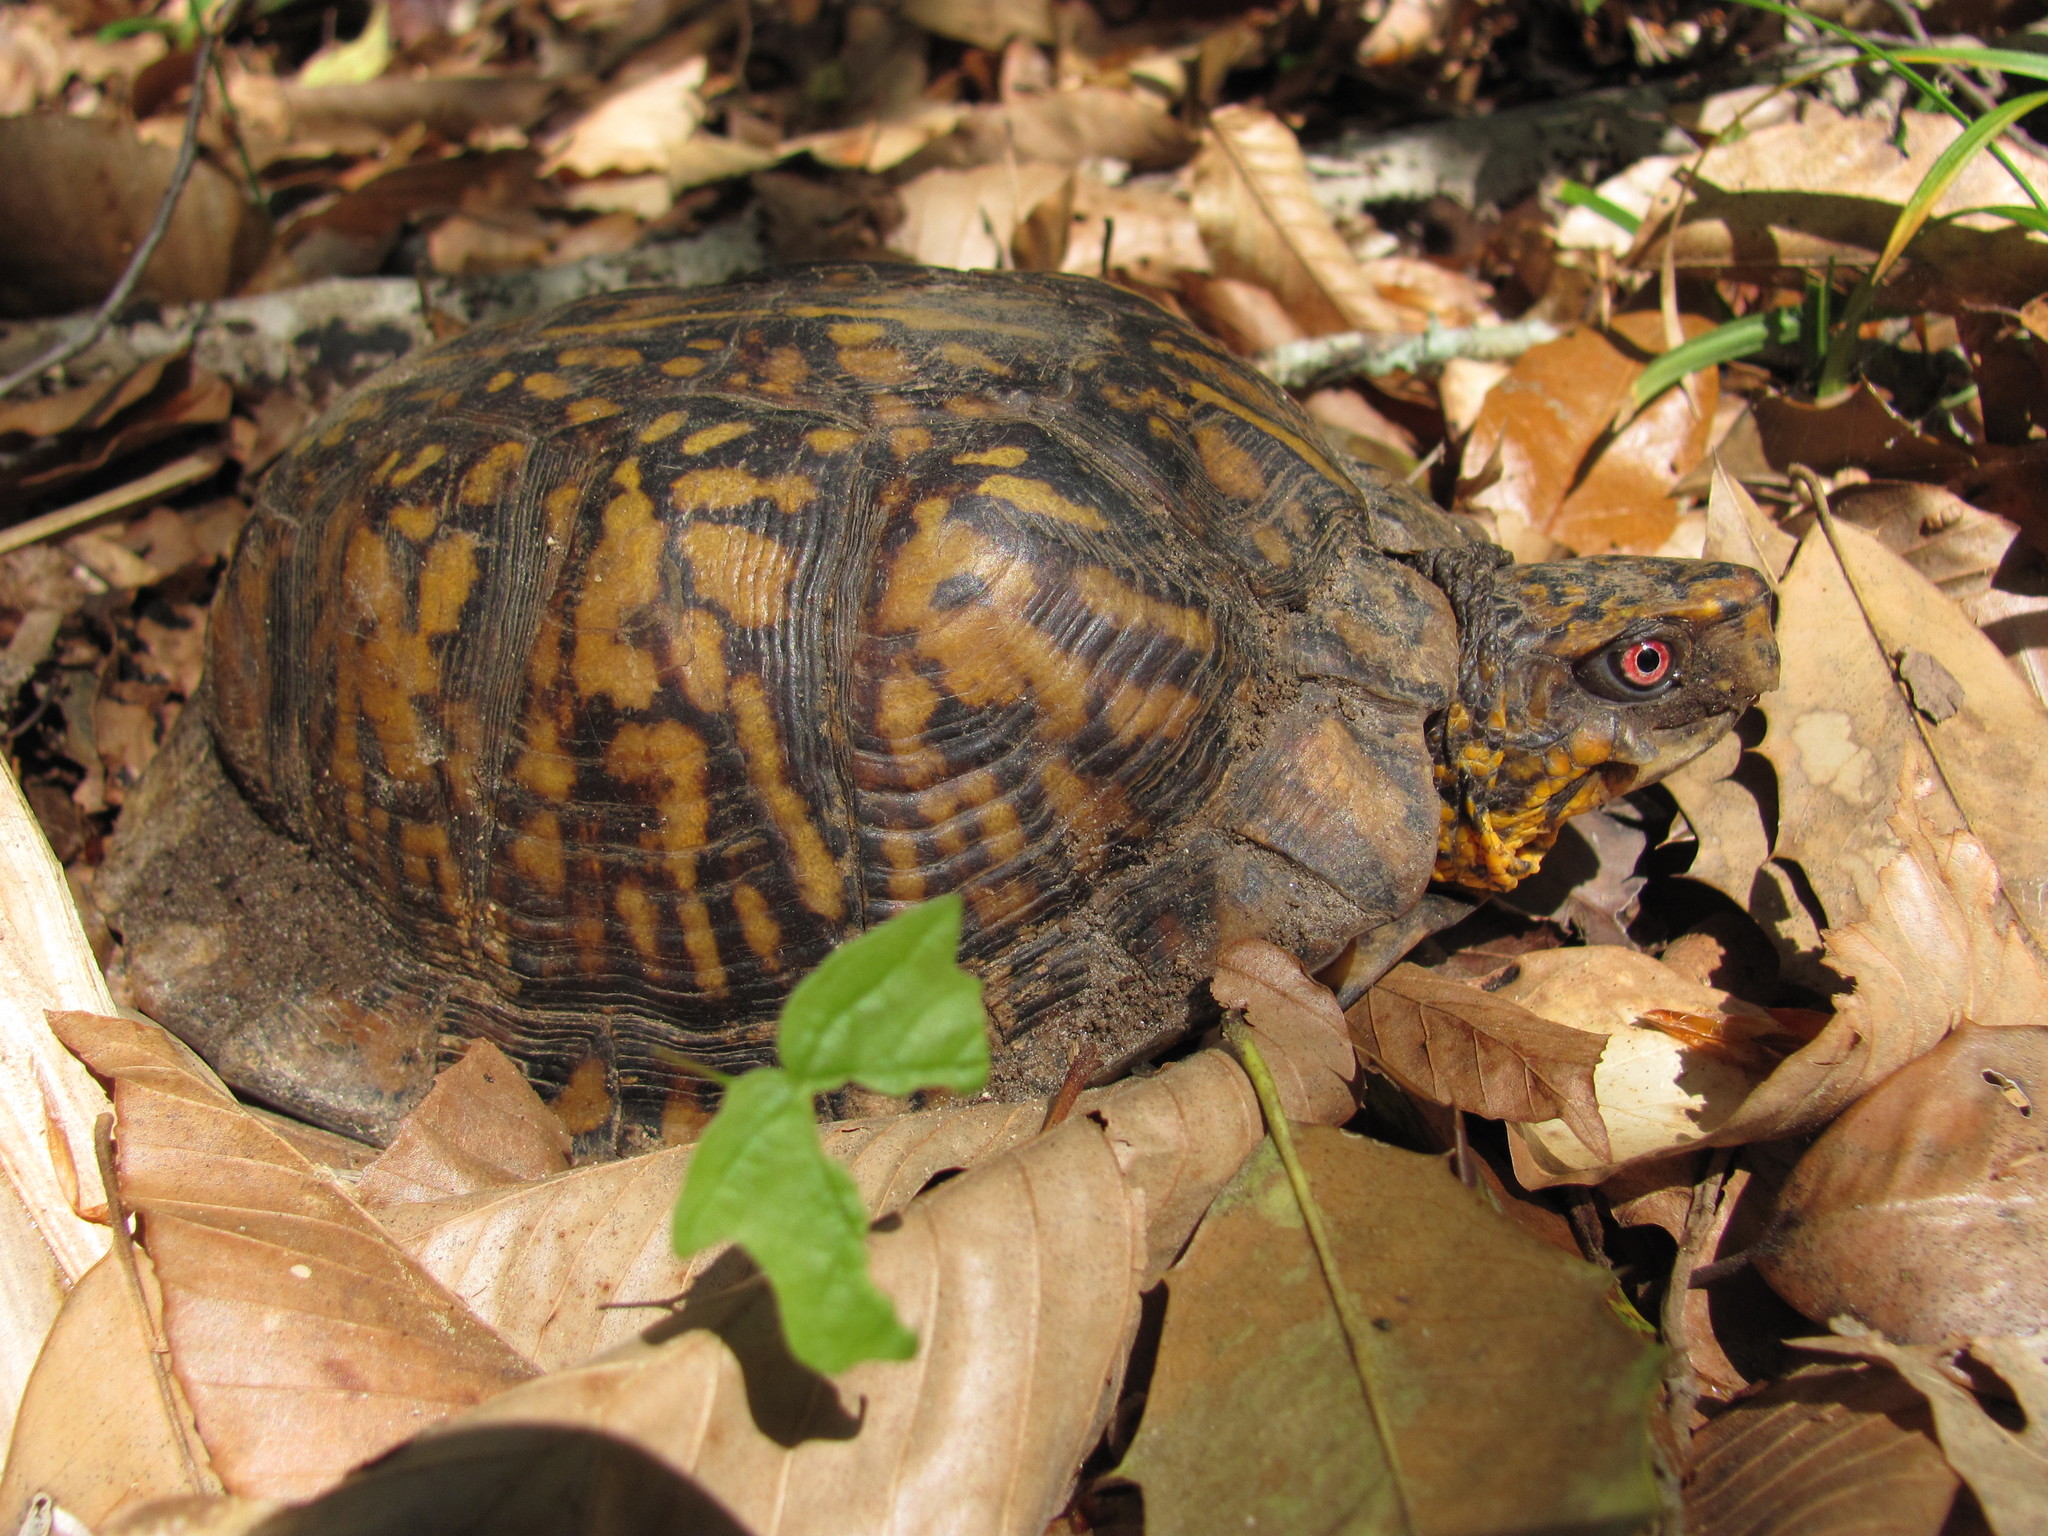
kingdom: Animalia
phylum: Chordata
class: Testudines
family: Emydidae
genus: Terrapene
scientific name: Terrapene carolina
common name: Common box turtle
